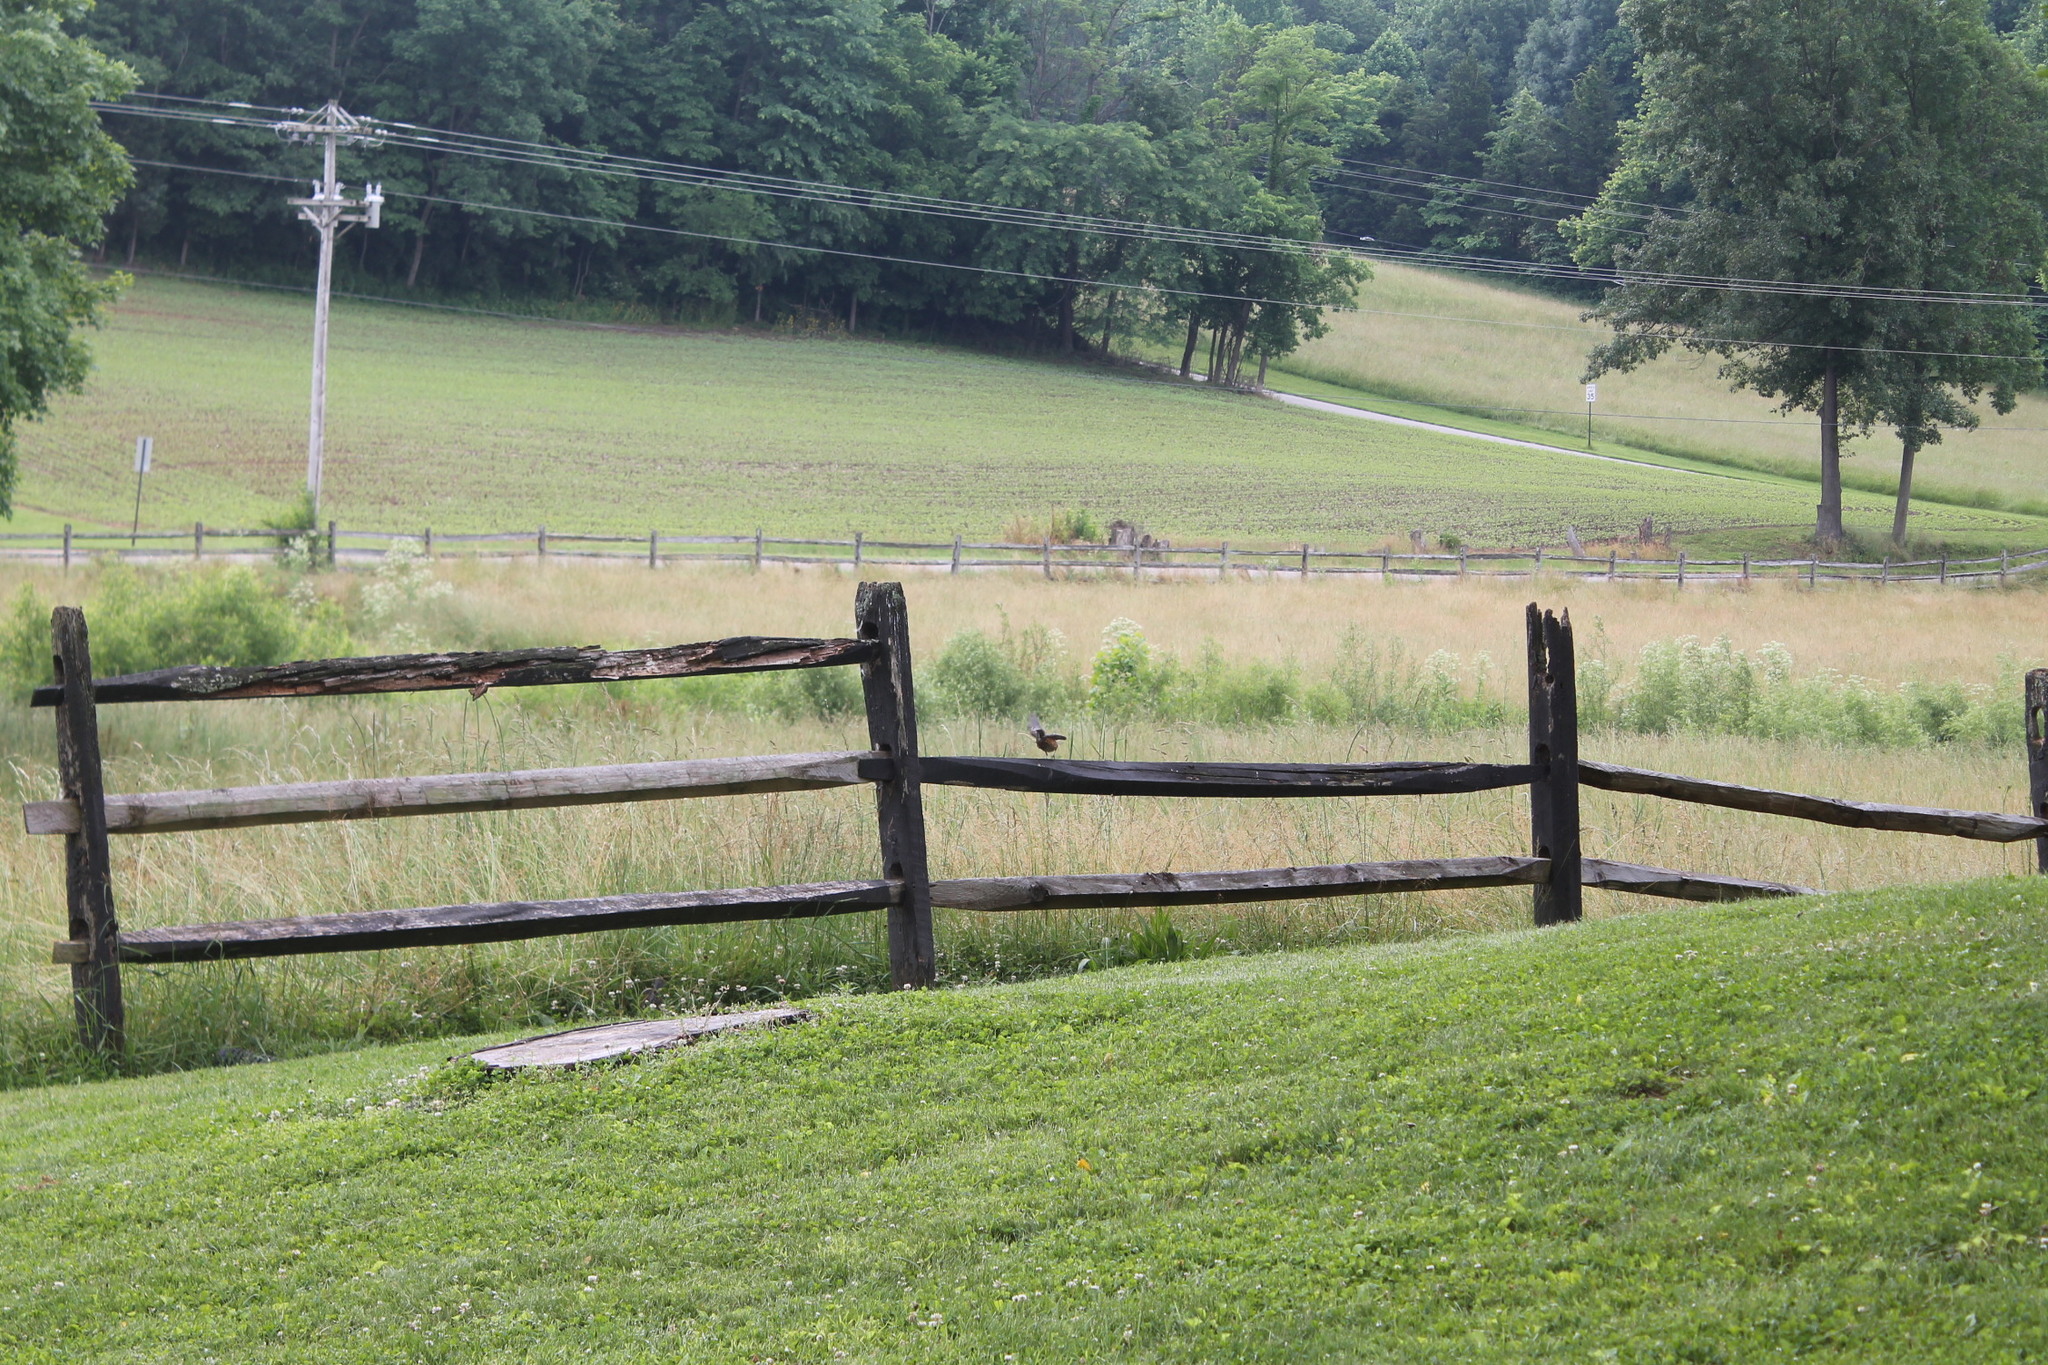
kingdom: Animalia
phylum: Chordata
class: Aves
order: Passeriformes
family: Turdidae
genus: Turdus
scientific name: Turdus migratorius
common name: American robin
